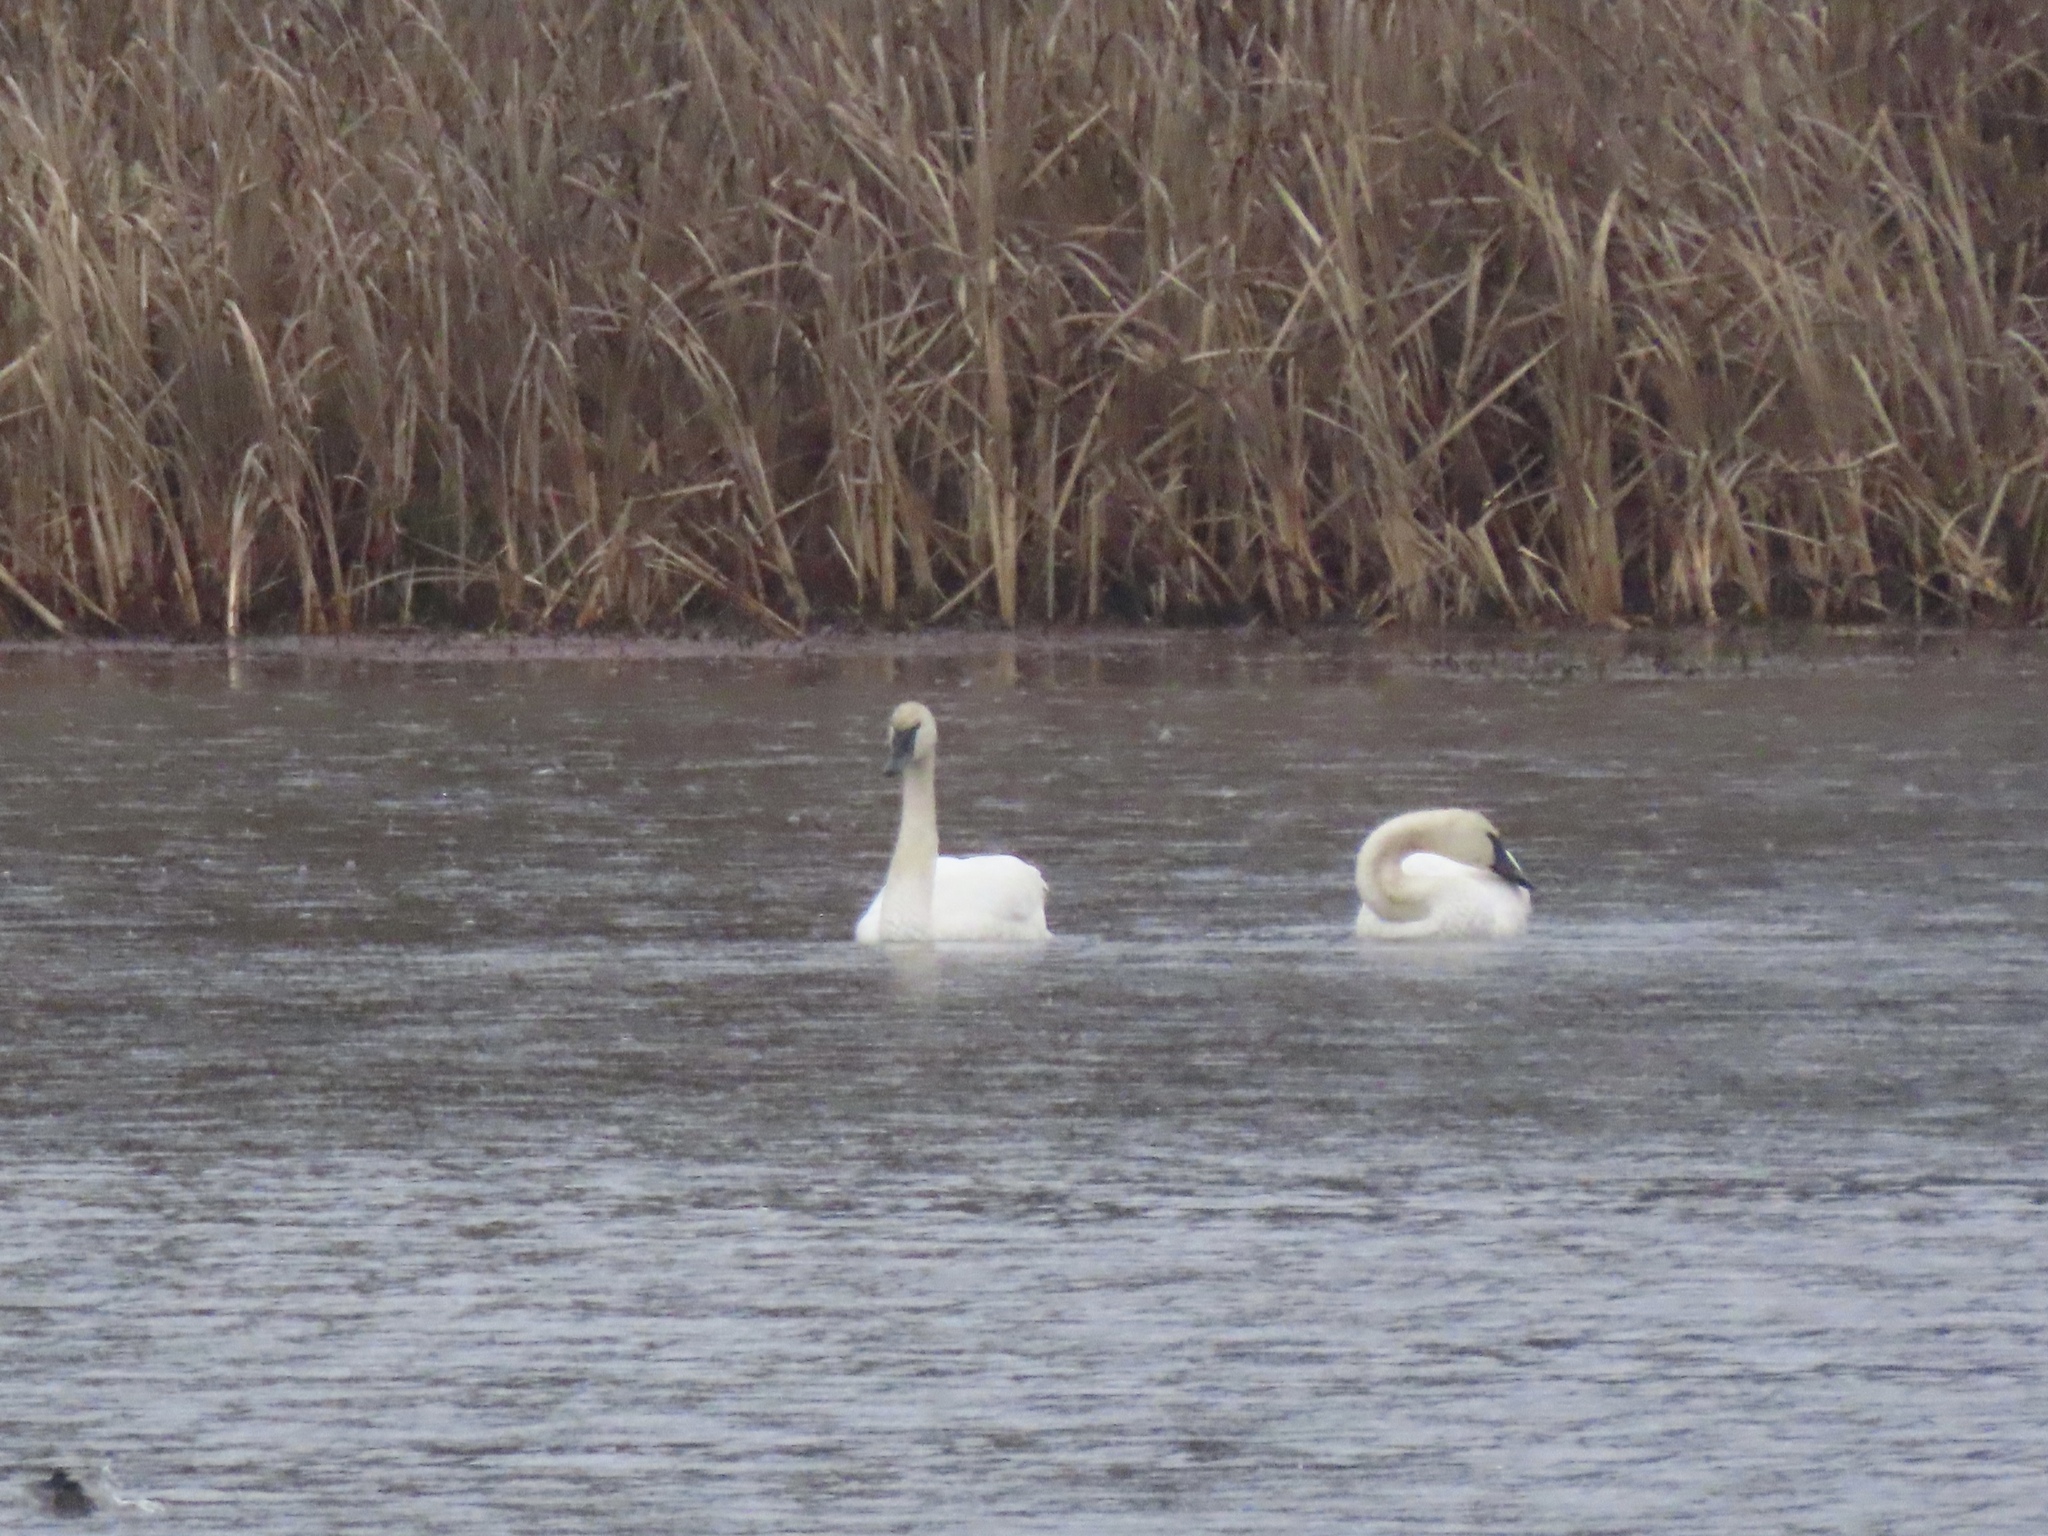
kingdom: Animalia
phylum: Chordata
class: Aves
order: Anseriformes
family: Anatidae
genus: Cygnus
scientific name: Cygnus buccinator
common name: Trumpeter swan
